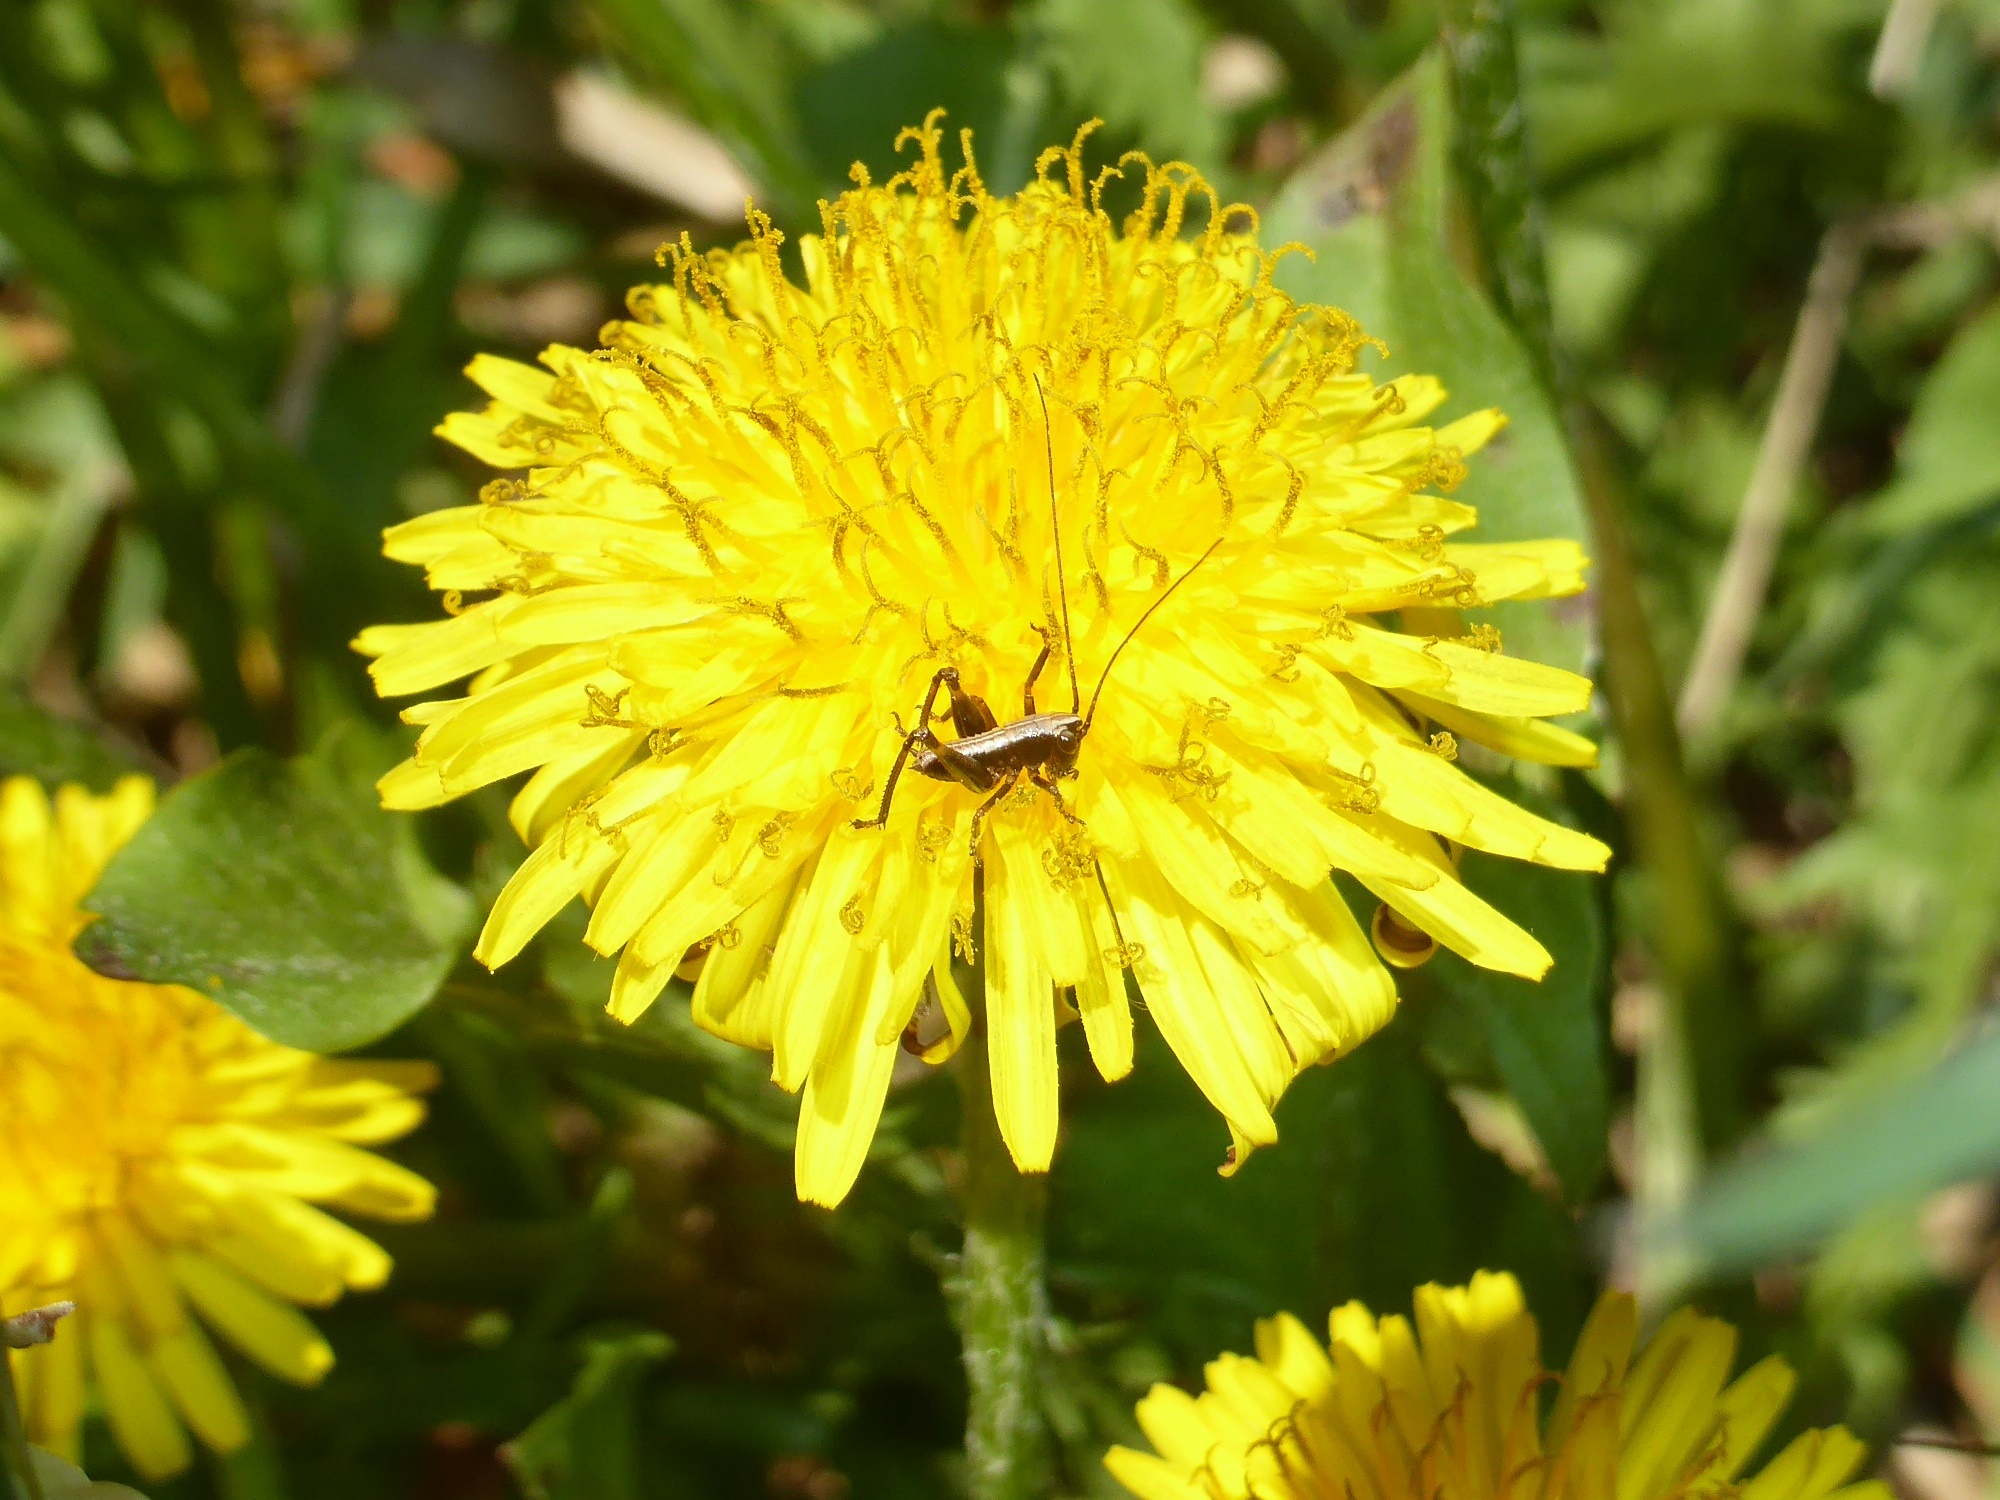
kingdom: Plantae
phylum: Tracheophyta
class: Magnoliopsida
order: Asterales
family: Asteraceae
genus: Taraxacum
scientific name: Taraxacum officinale
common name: Common dandelion
